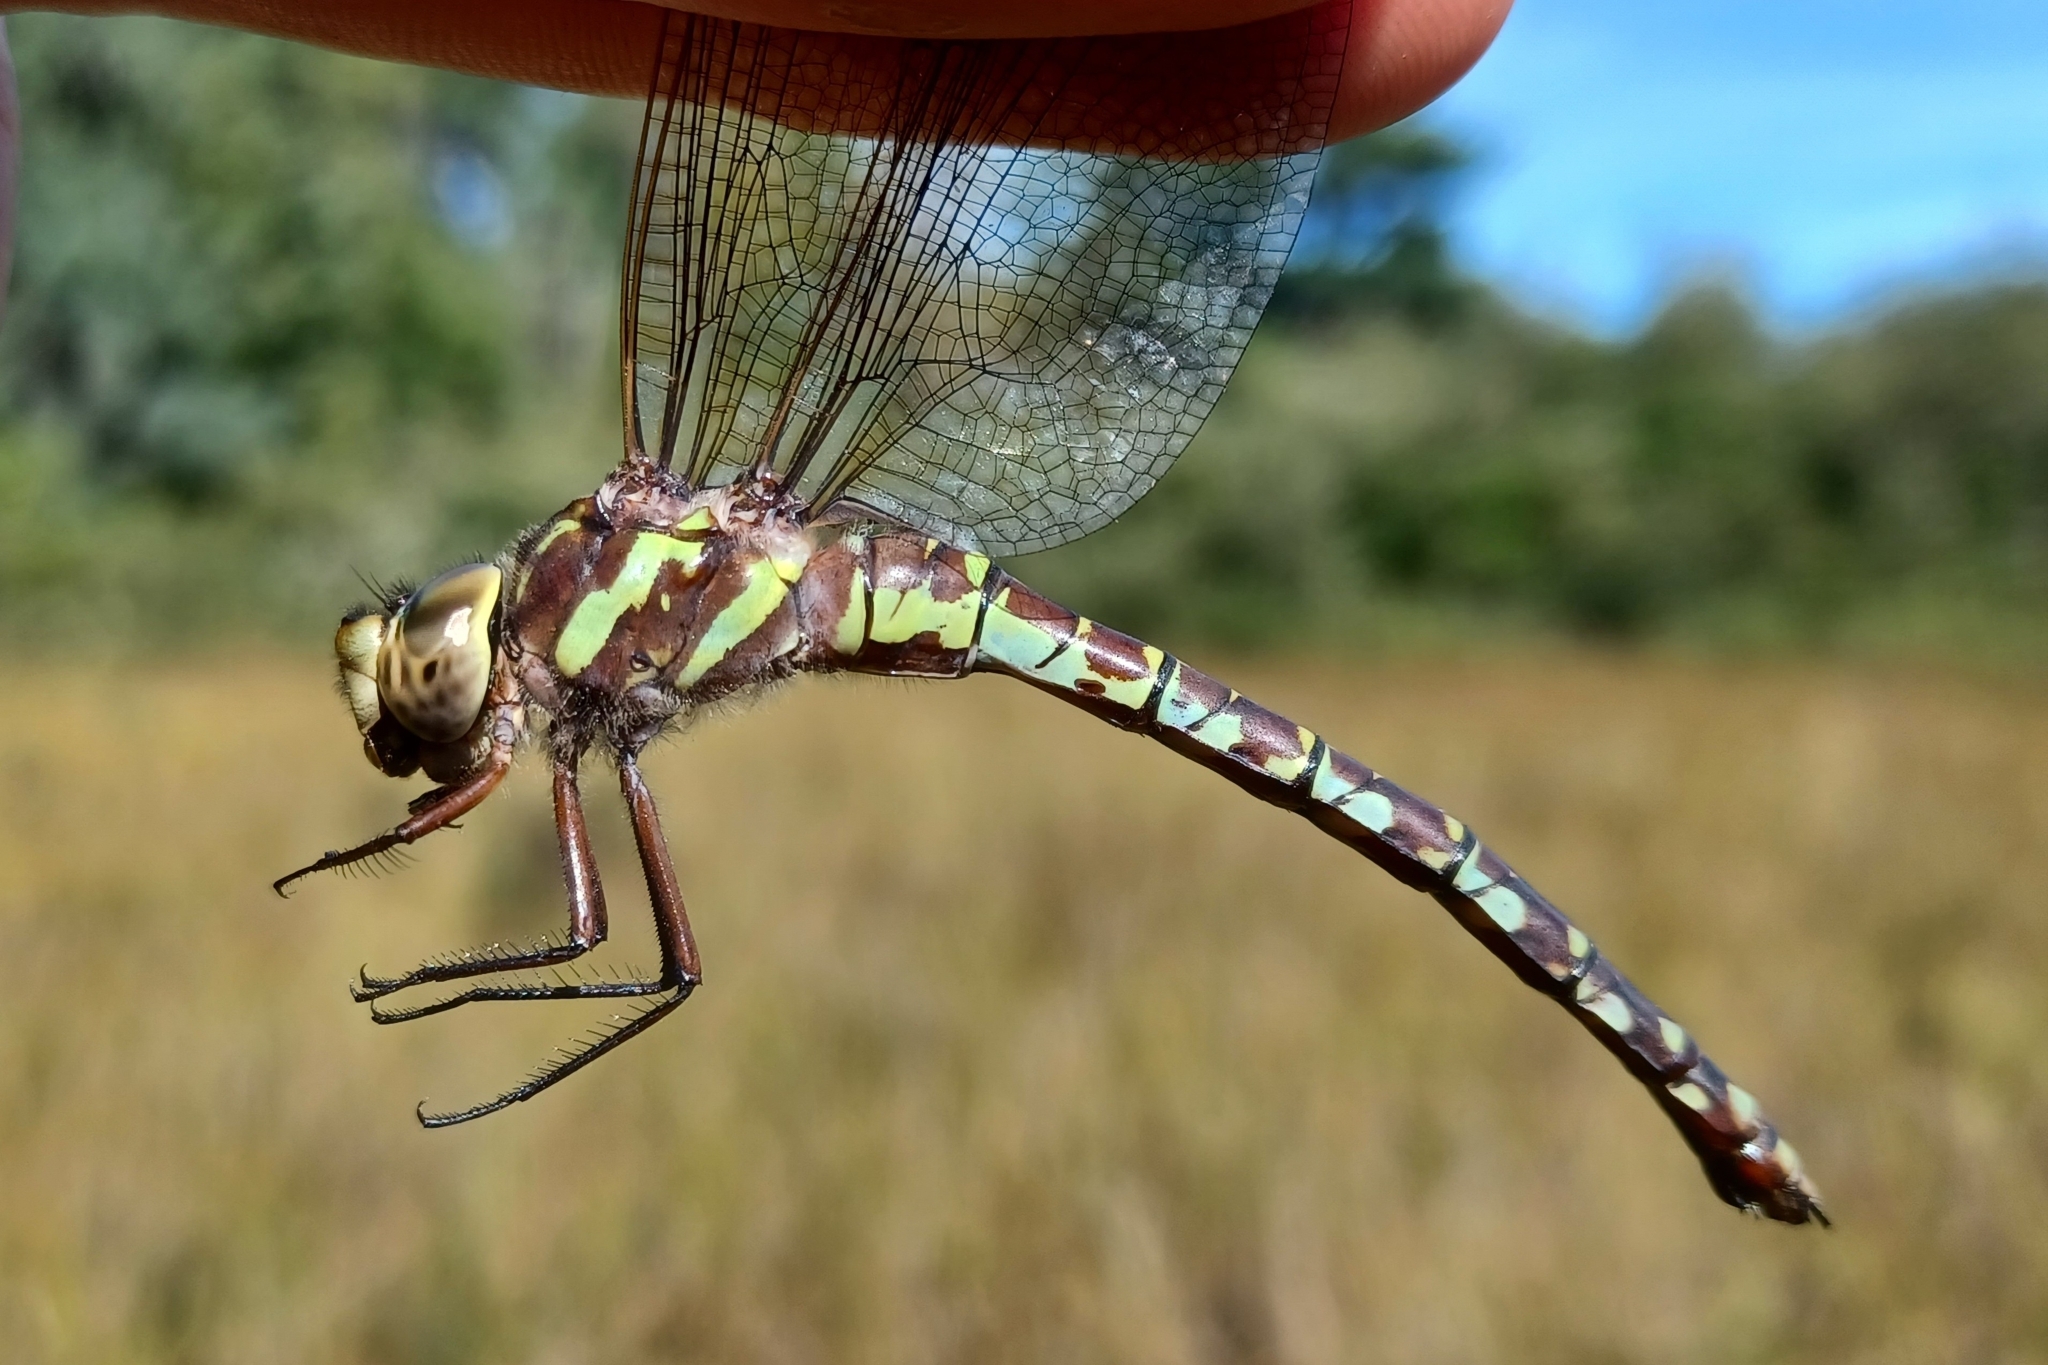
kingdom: Animalia
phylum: Arthropoda
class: Insecta
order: Odonata
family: Aeshnidae
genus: Aeshna
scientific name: Aeshna verticalis
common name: Green-striped darner
